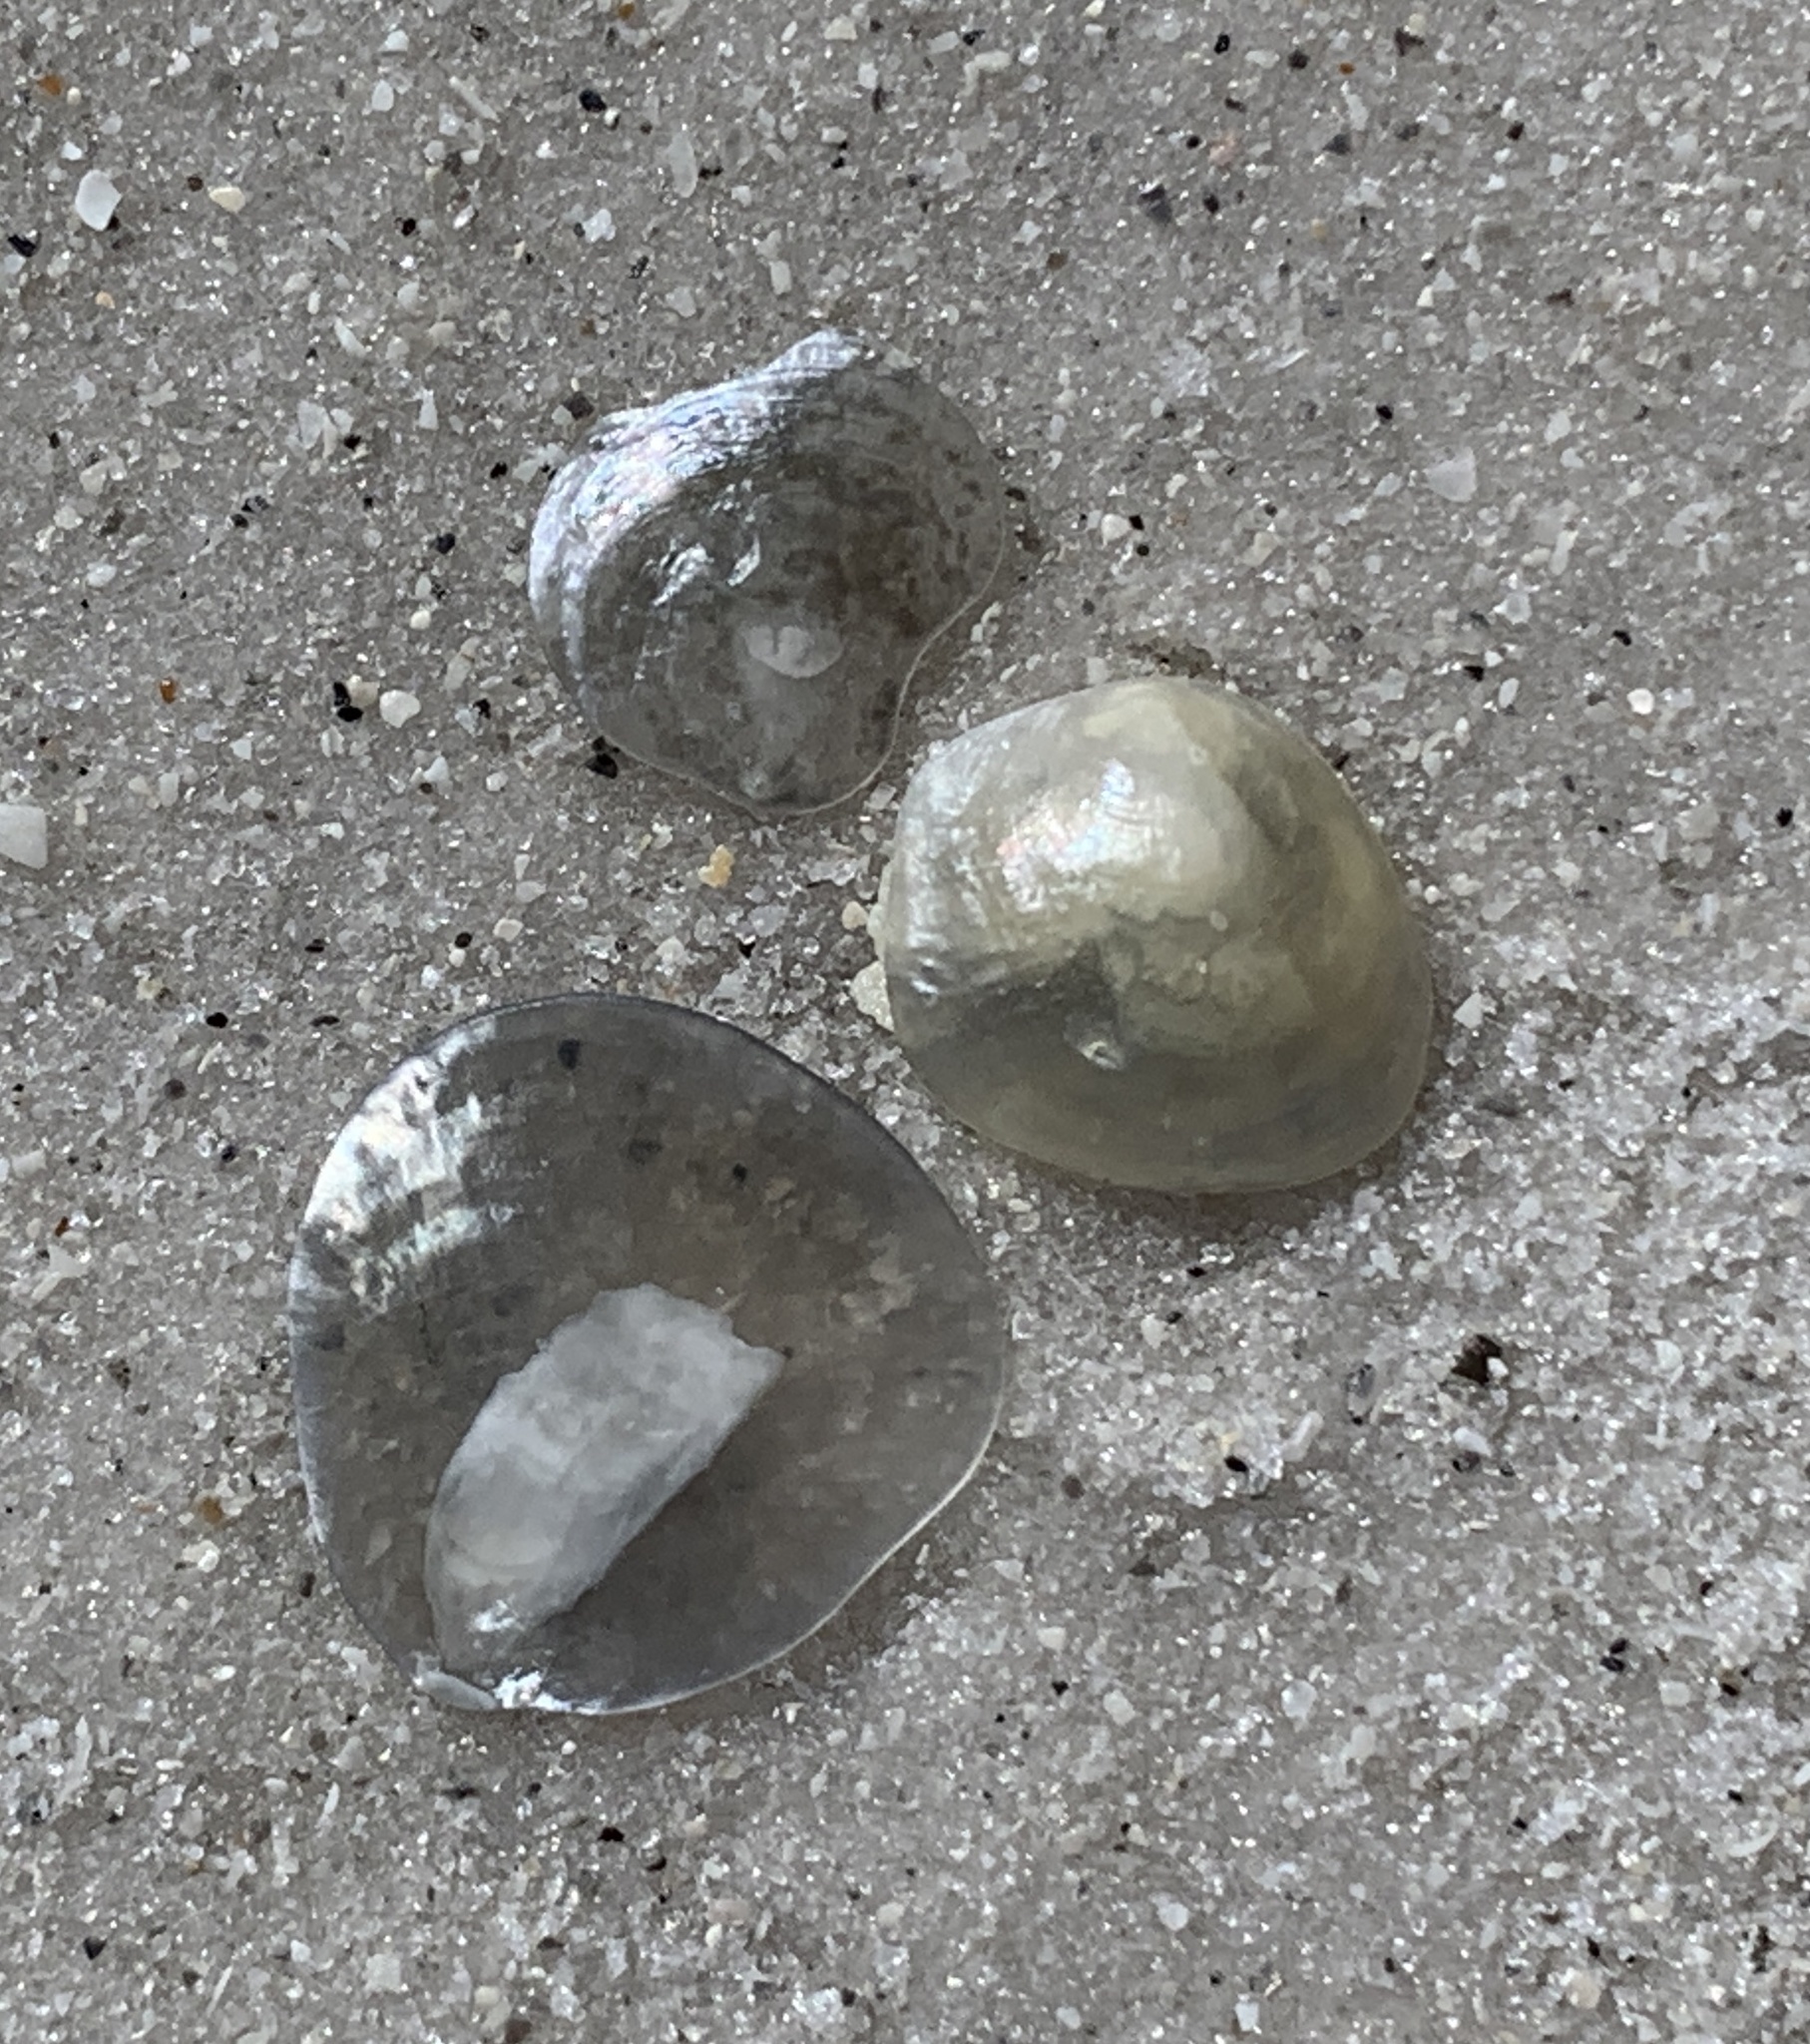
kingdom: Animalia
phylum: Mollusca
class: Bivalvia
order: Pectinida
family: Anomiidae
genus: Anomia
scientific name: Anomia simplex
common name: Common jingle shell
